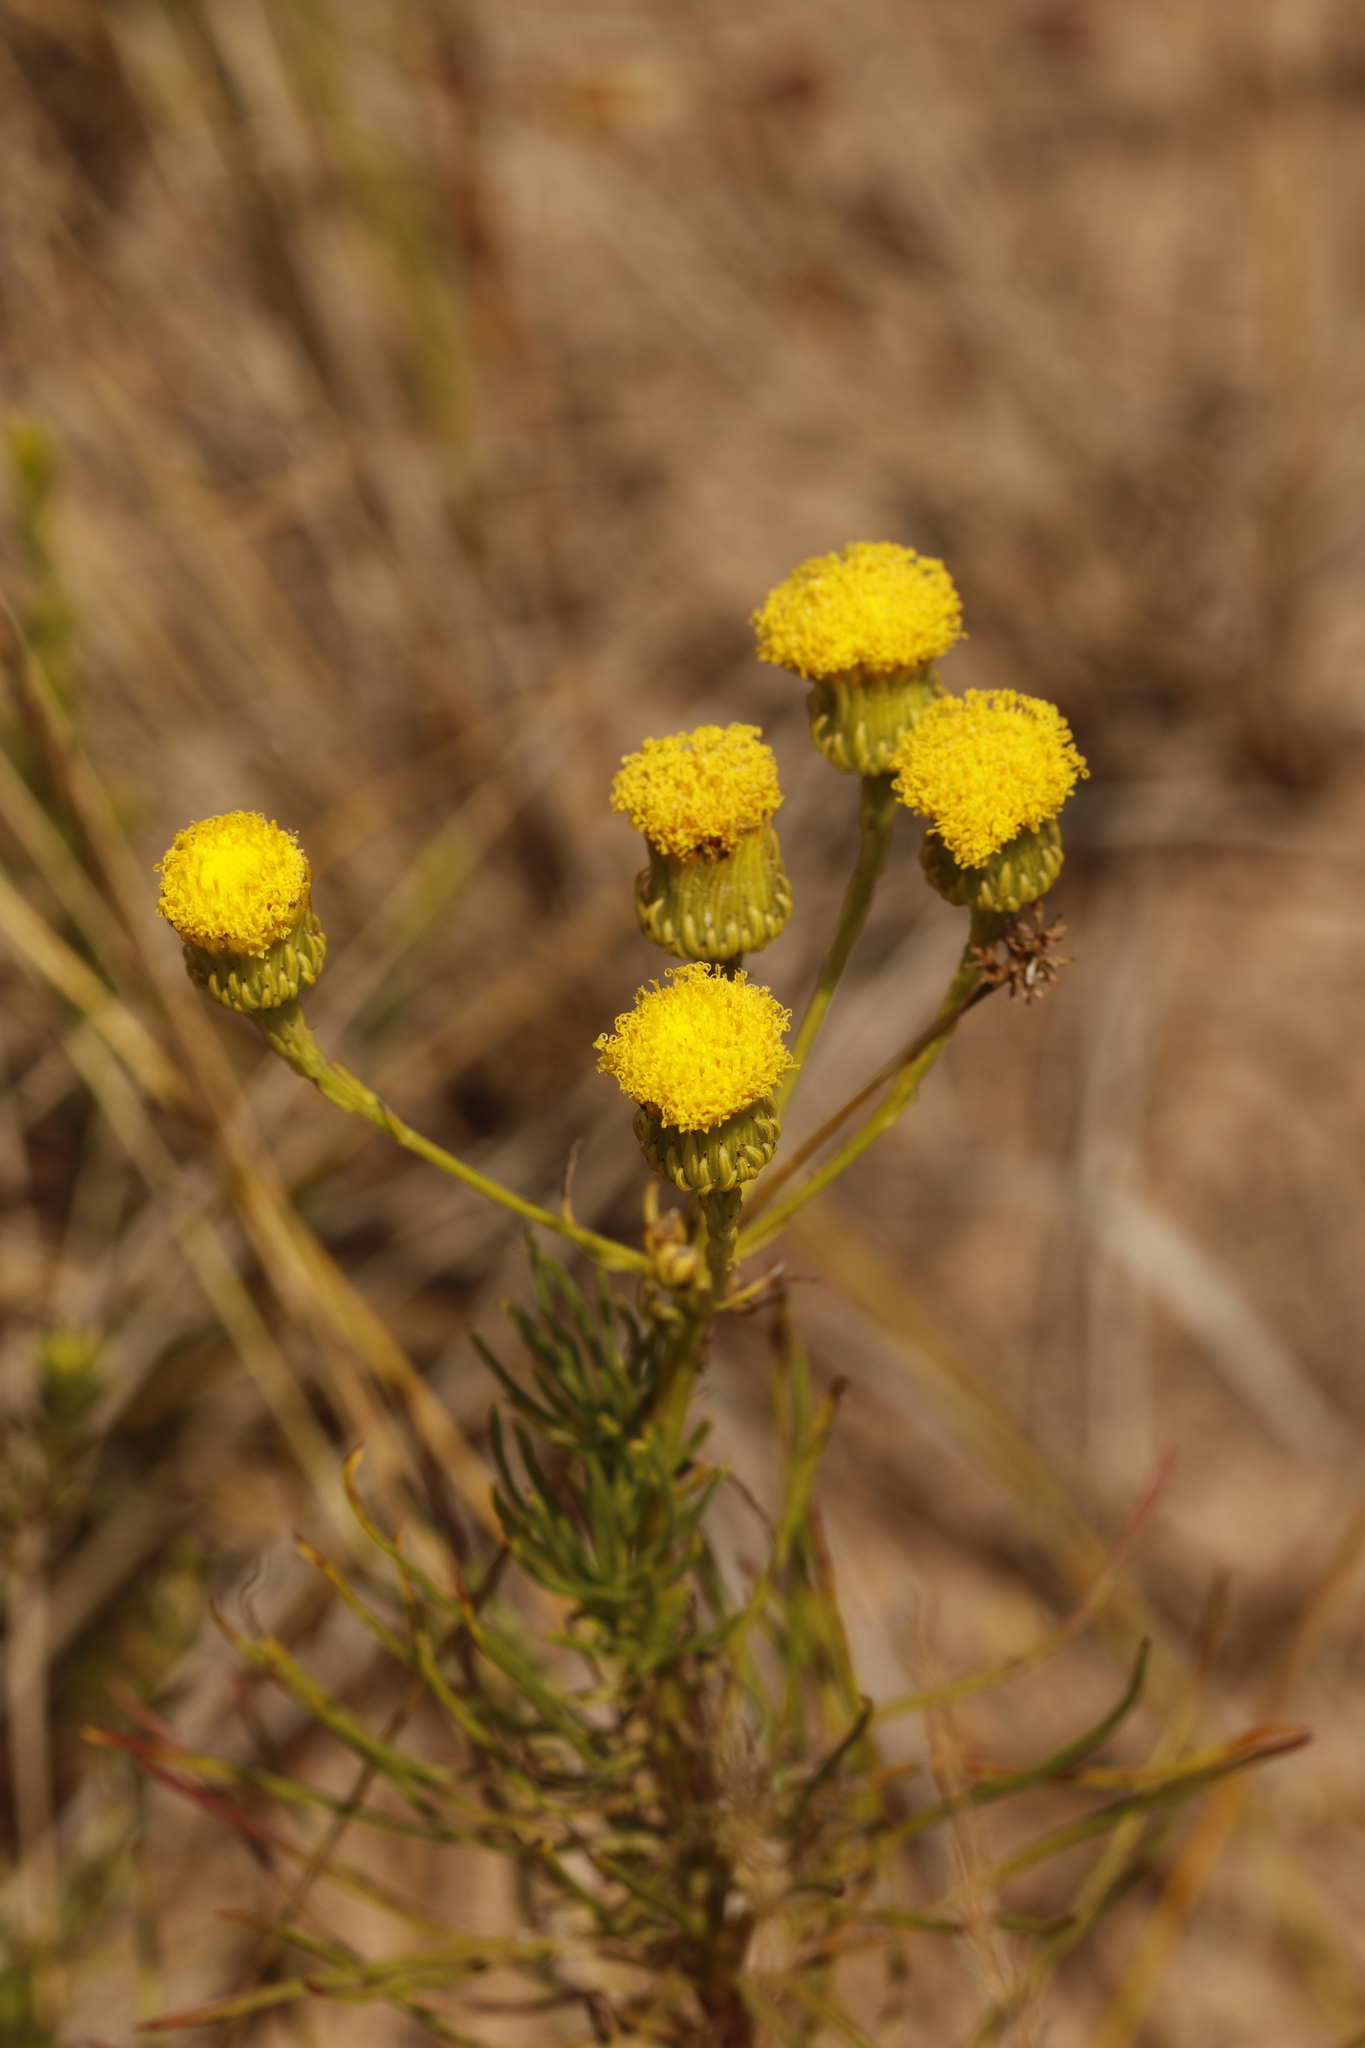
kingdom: Plantae
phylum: Tracheophyta
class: Magnoliopsida
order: Asterales
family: Asteraceae
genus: Senecio
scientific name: Senecio chrysocoma
